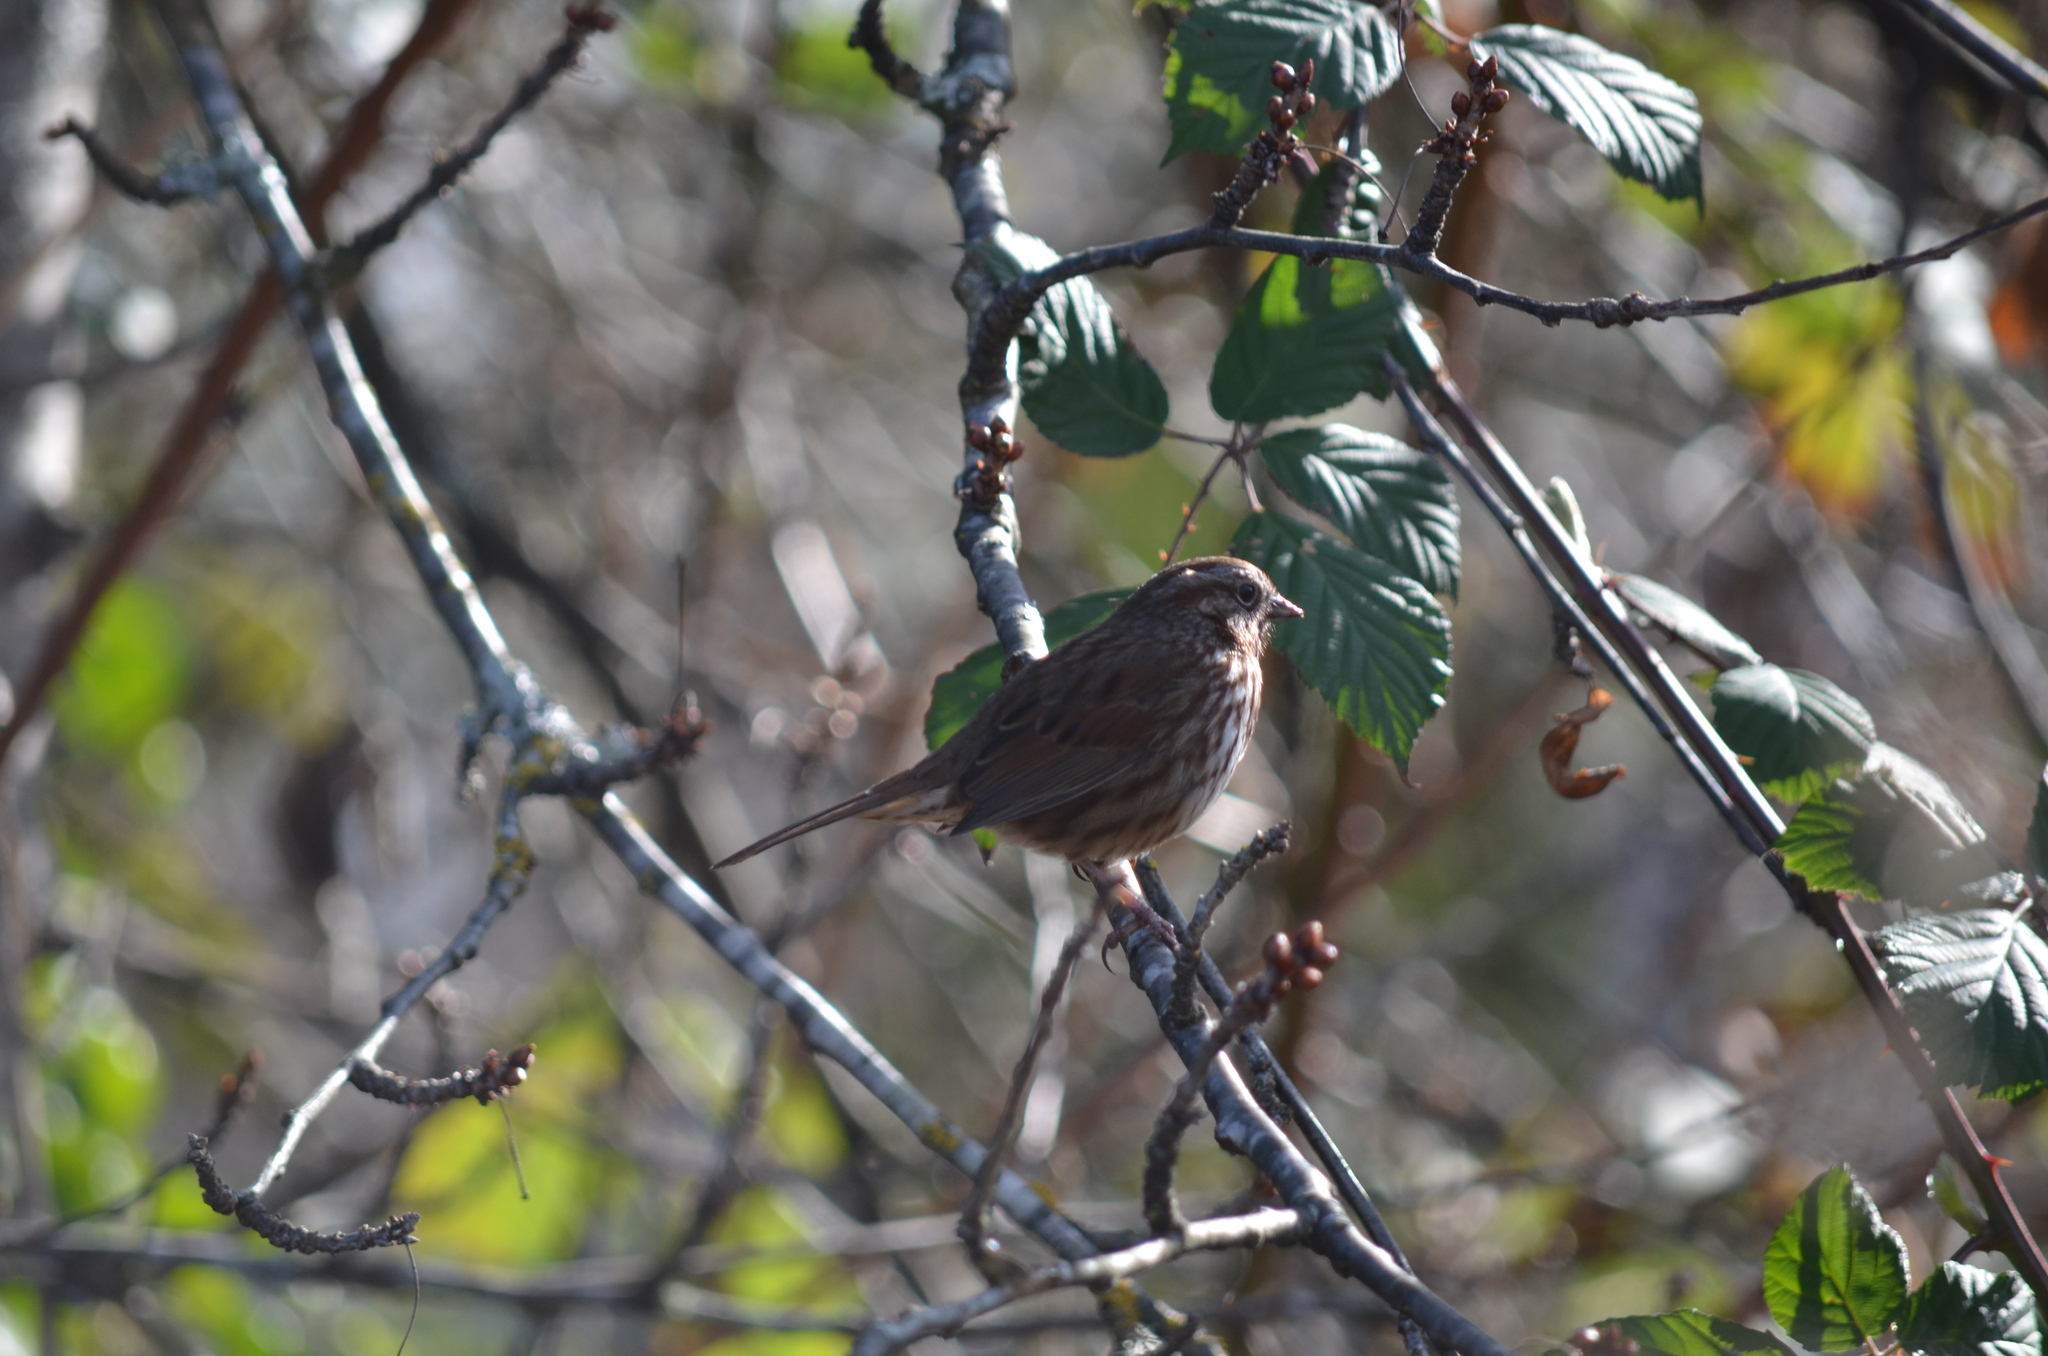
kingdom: Animalia
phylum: Chordata
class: Aves
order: Passeriformes
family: Passerellidae
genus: Melospiza
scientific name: Melospiza melodia
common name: Song sparrow
